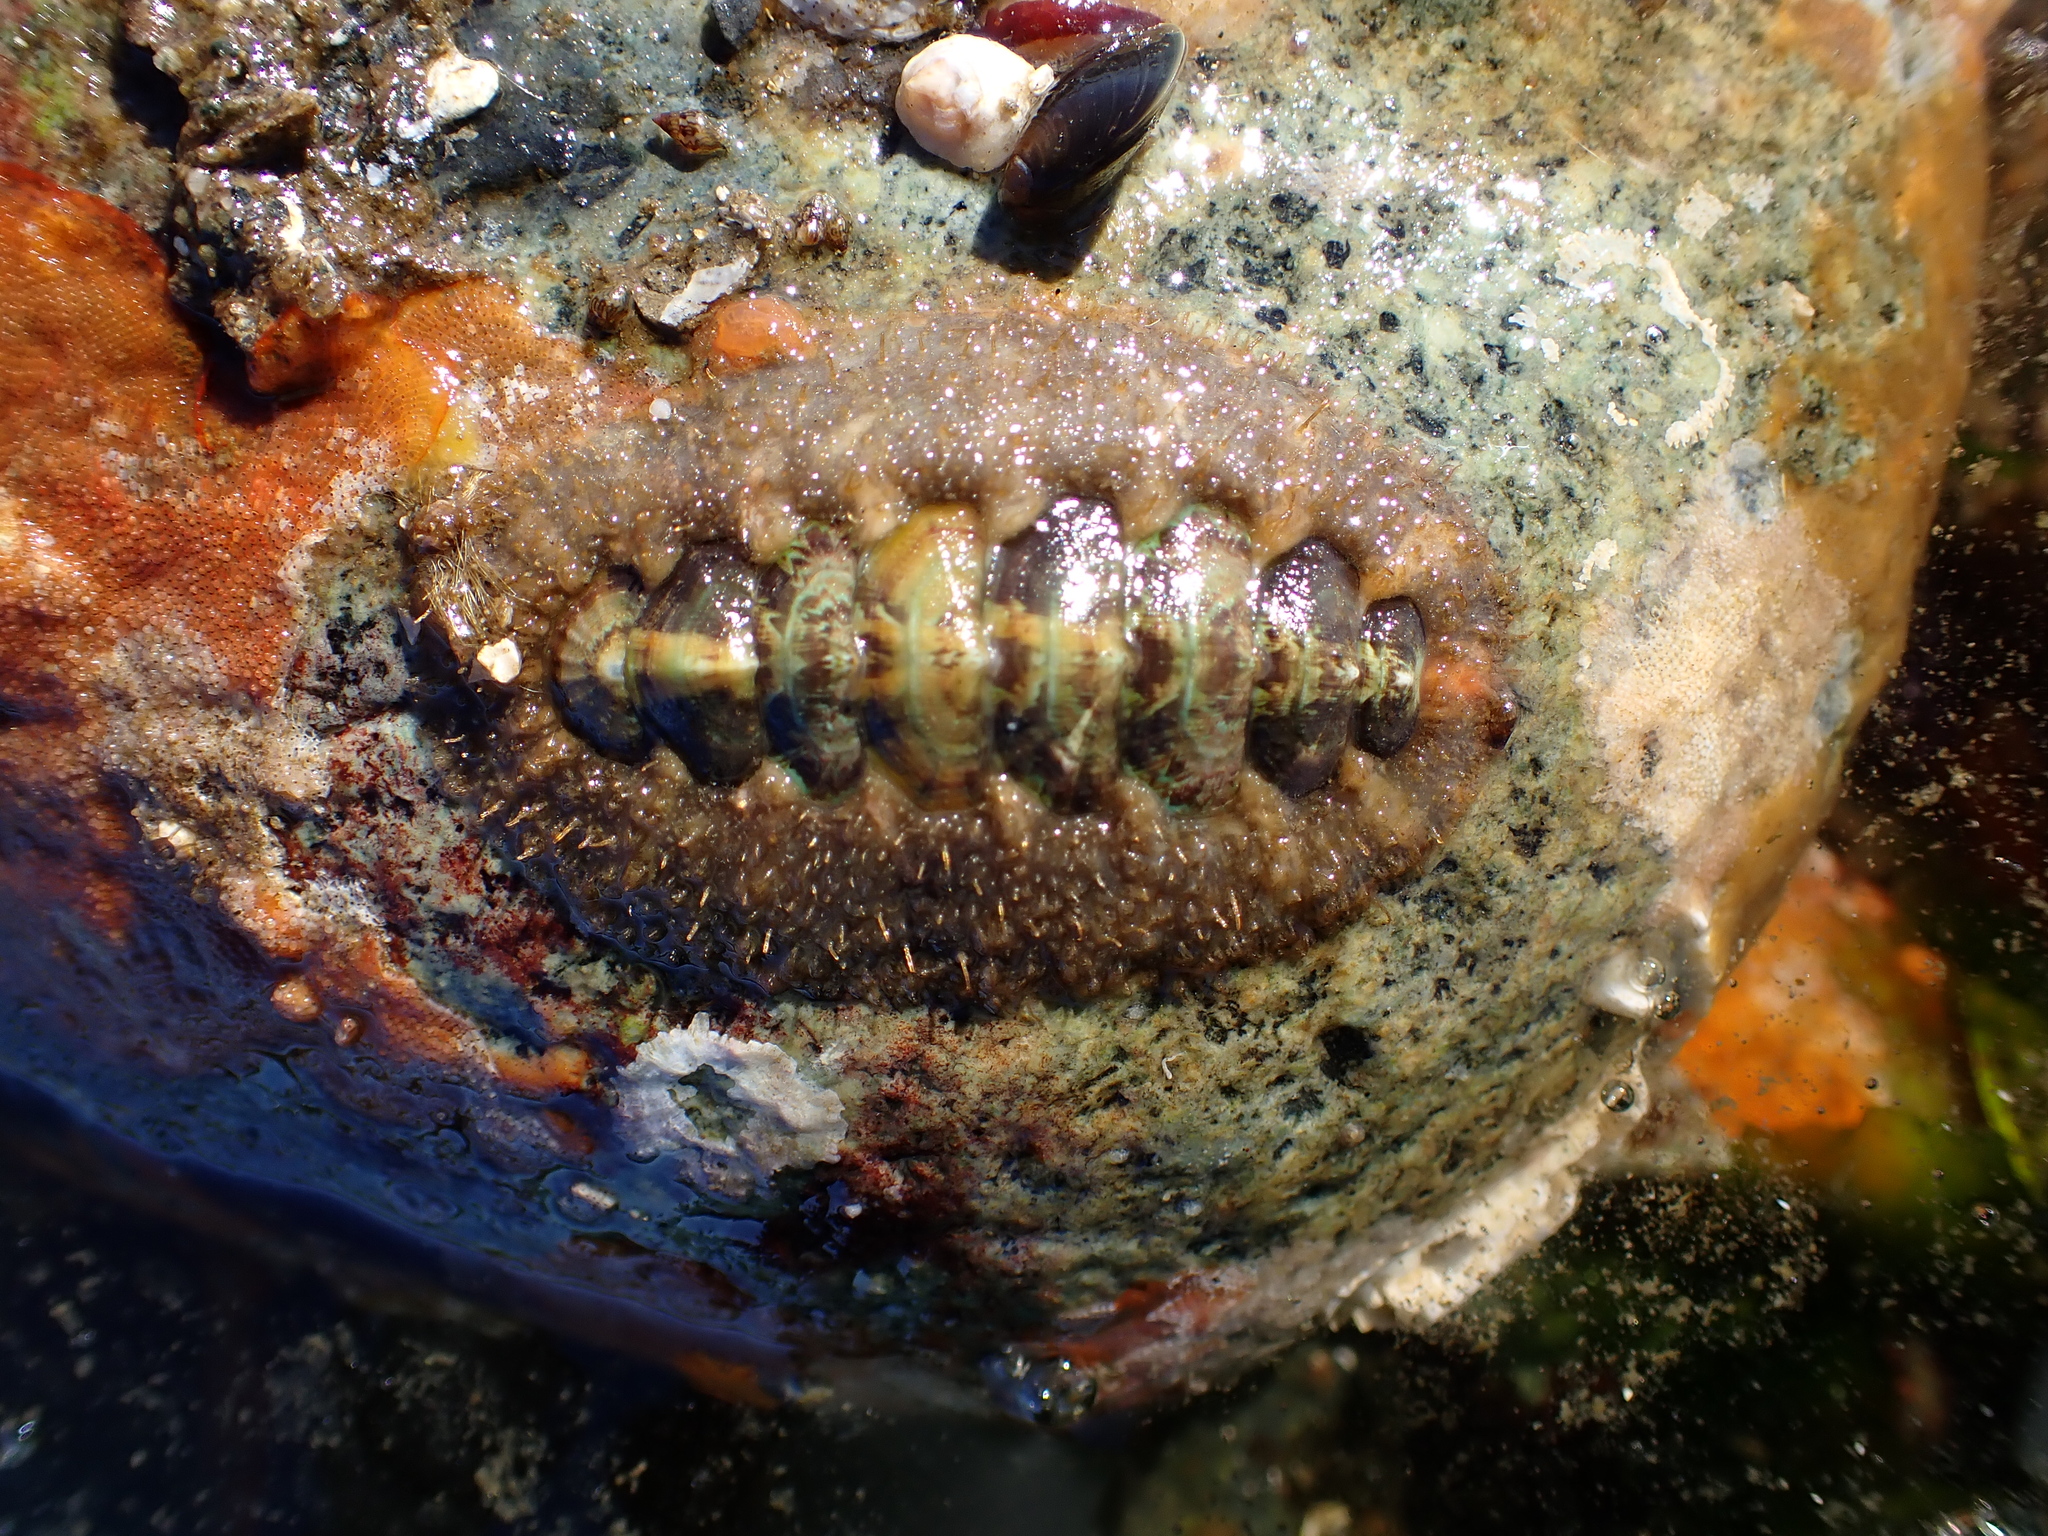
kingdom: Animalia
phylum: Mollusca
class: Polyplacophora
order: Chitonida
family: Mopaliidae
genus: Mopalia
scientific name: Mopalia ciliata
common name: Hairy chiton
